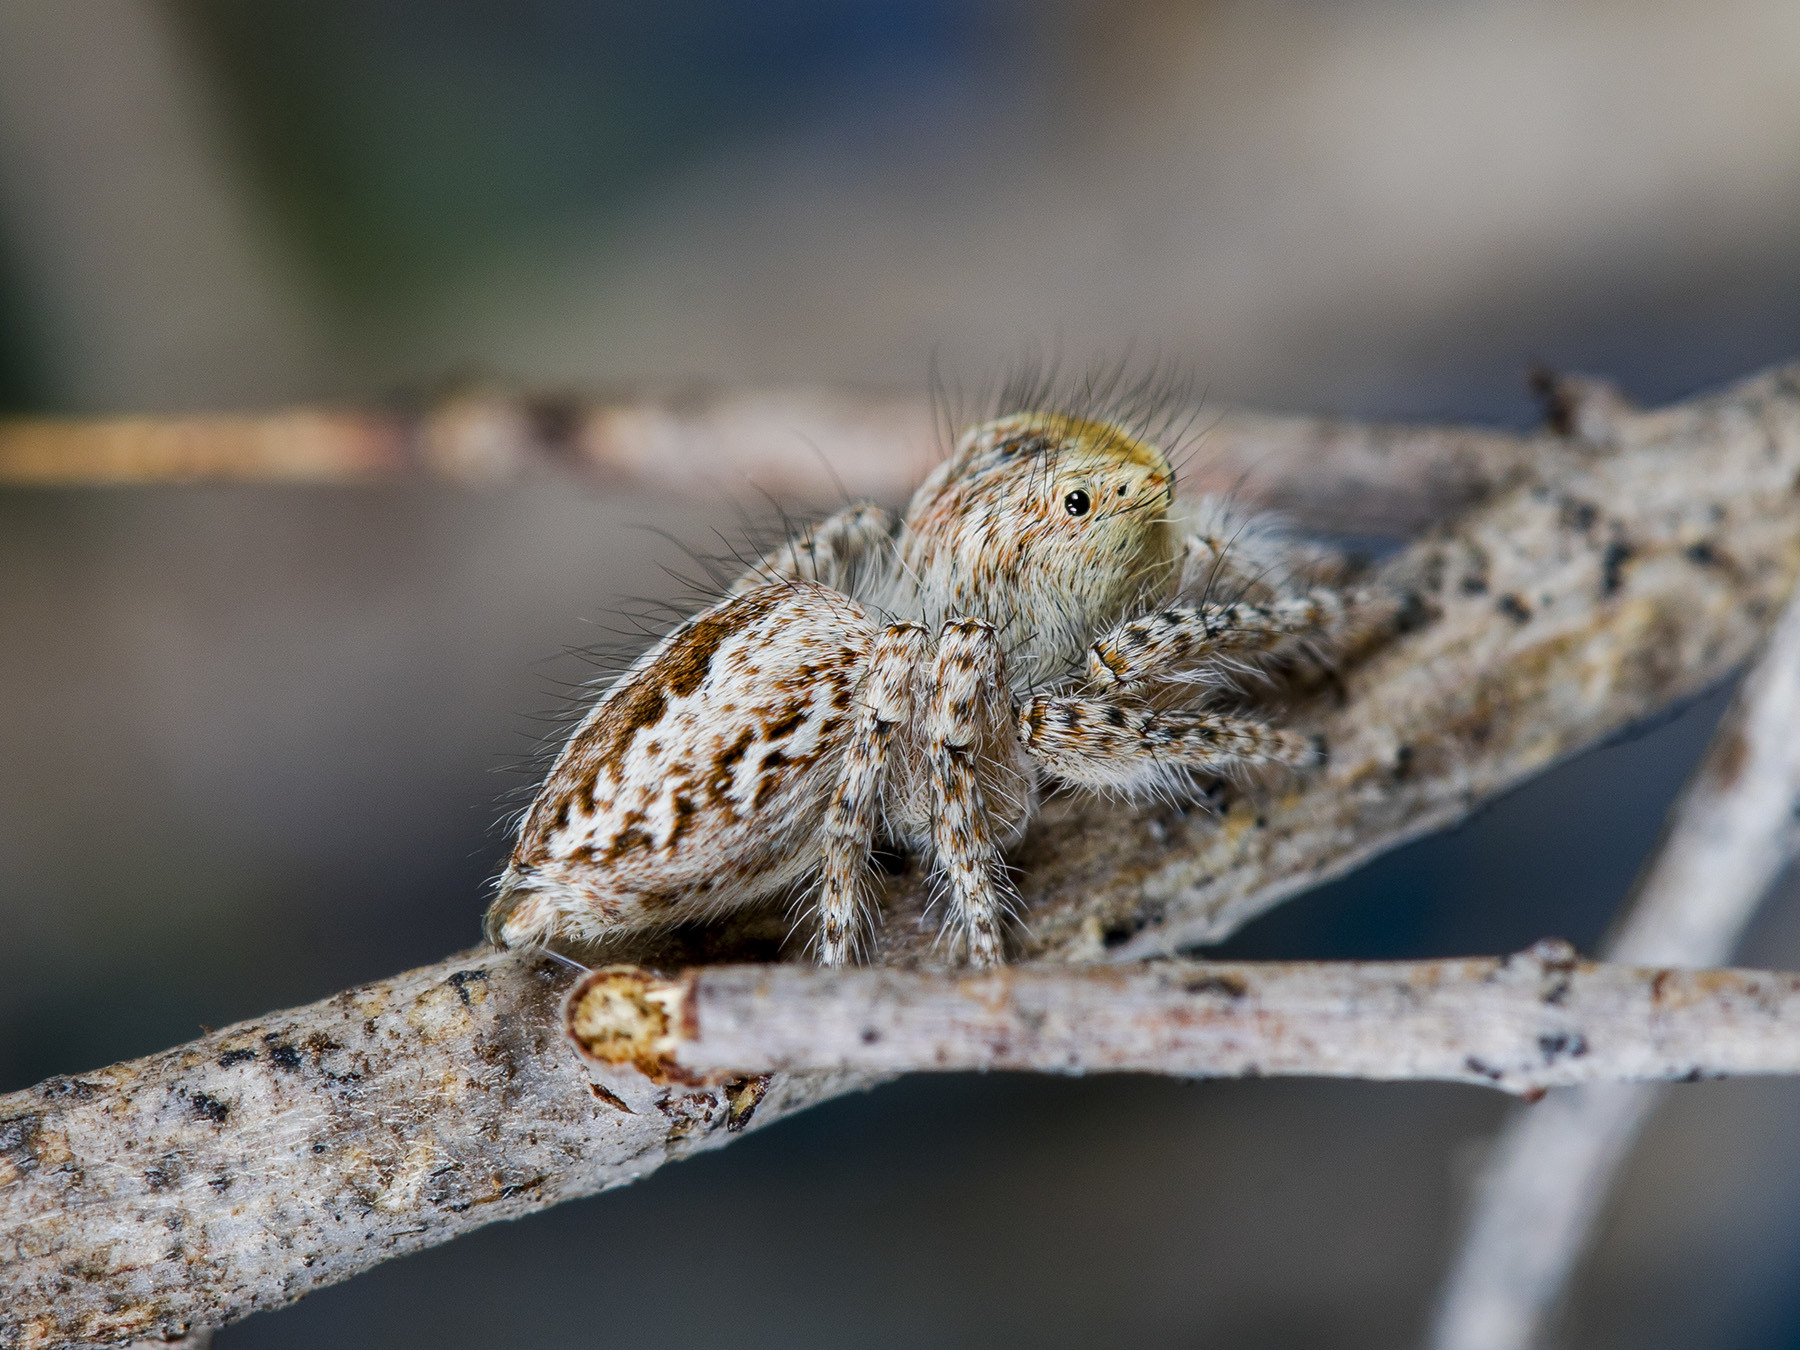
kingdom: Animalia
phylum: Arthropoda
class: Arachnida
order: Araneae
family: Salticidae
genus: Mogrus
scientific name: Mogrus larisae
